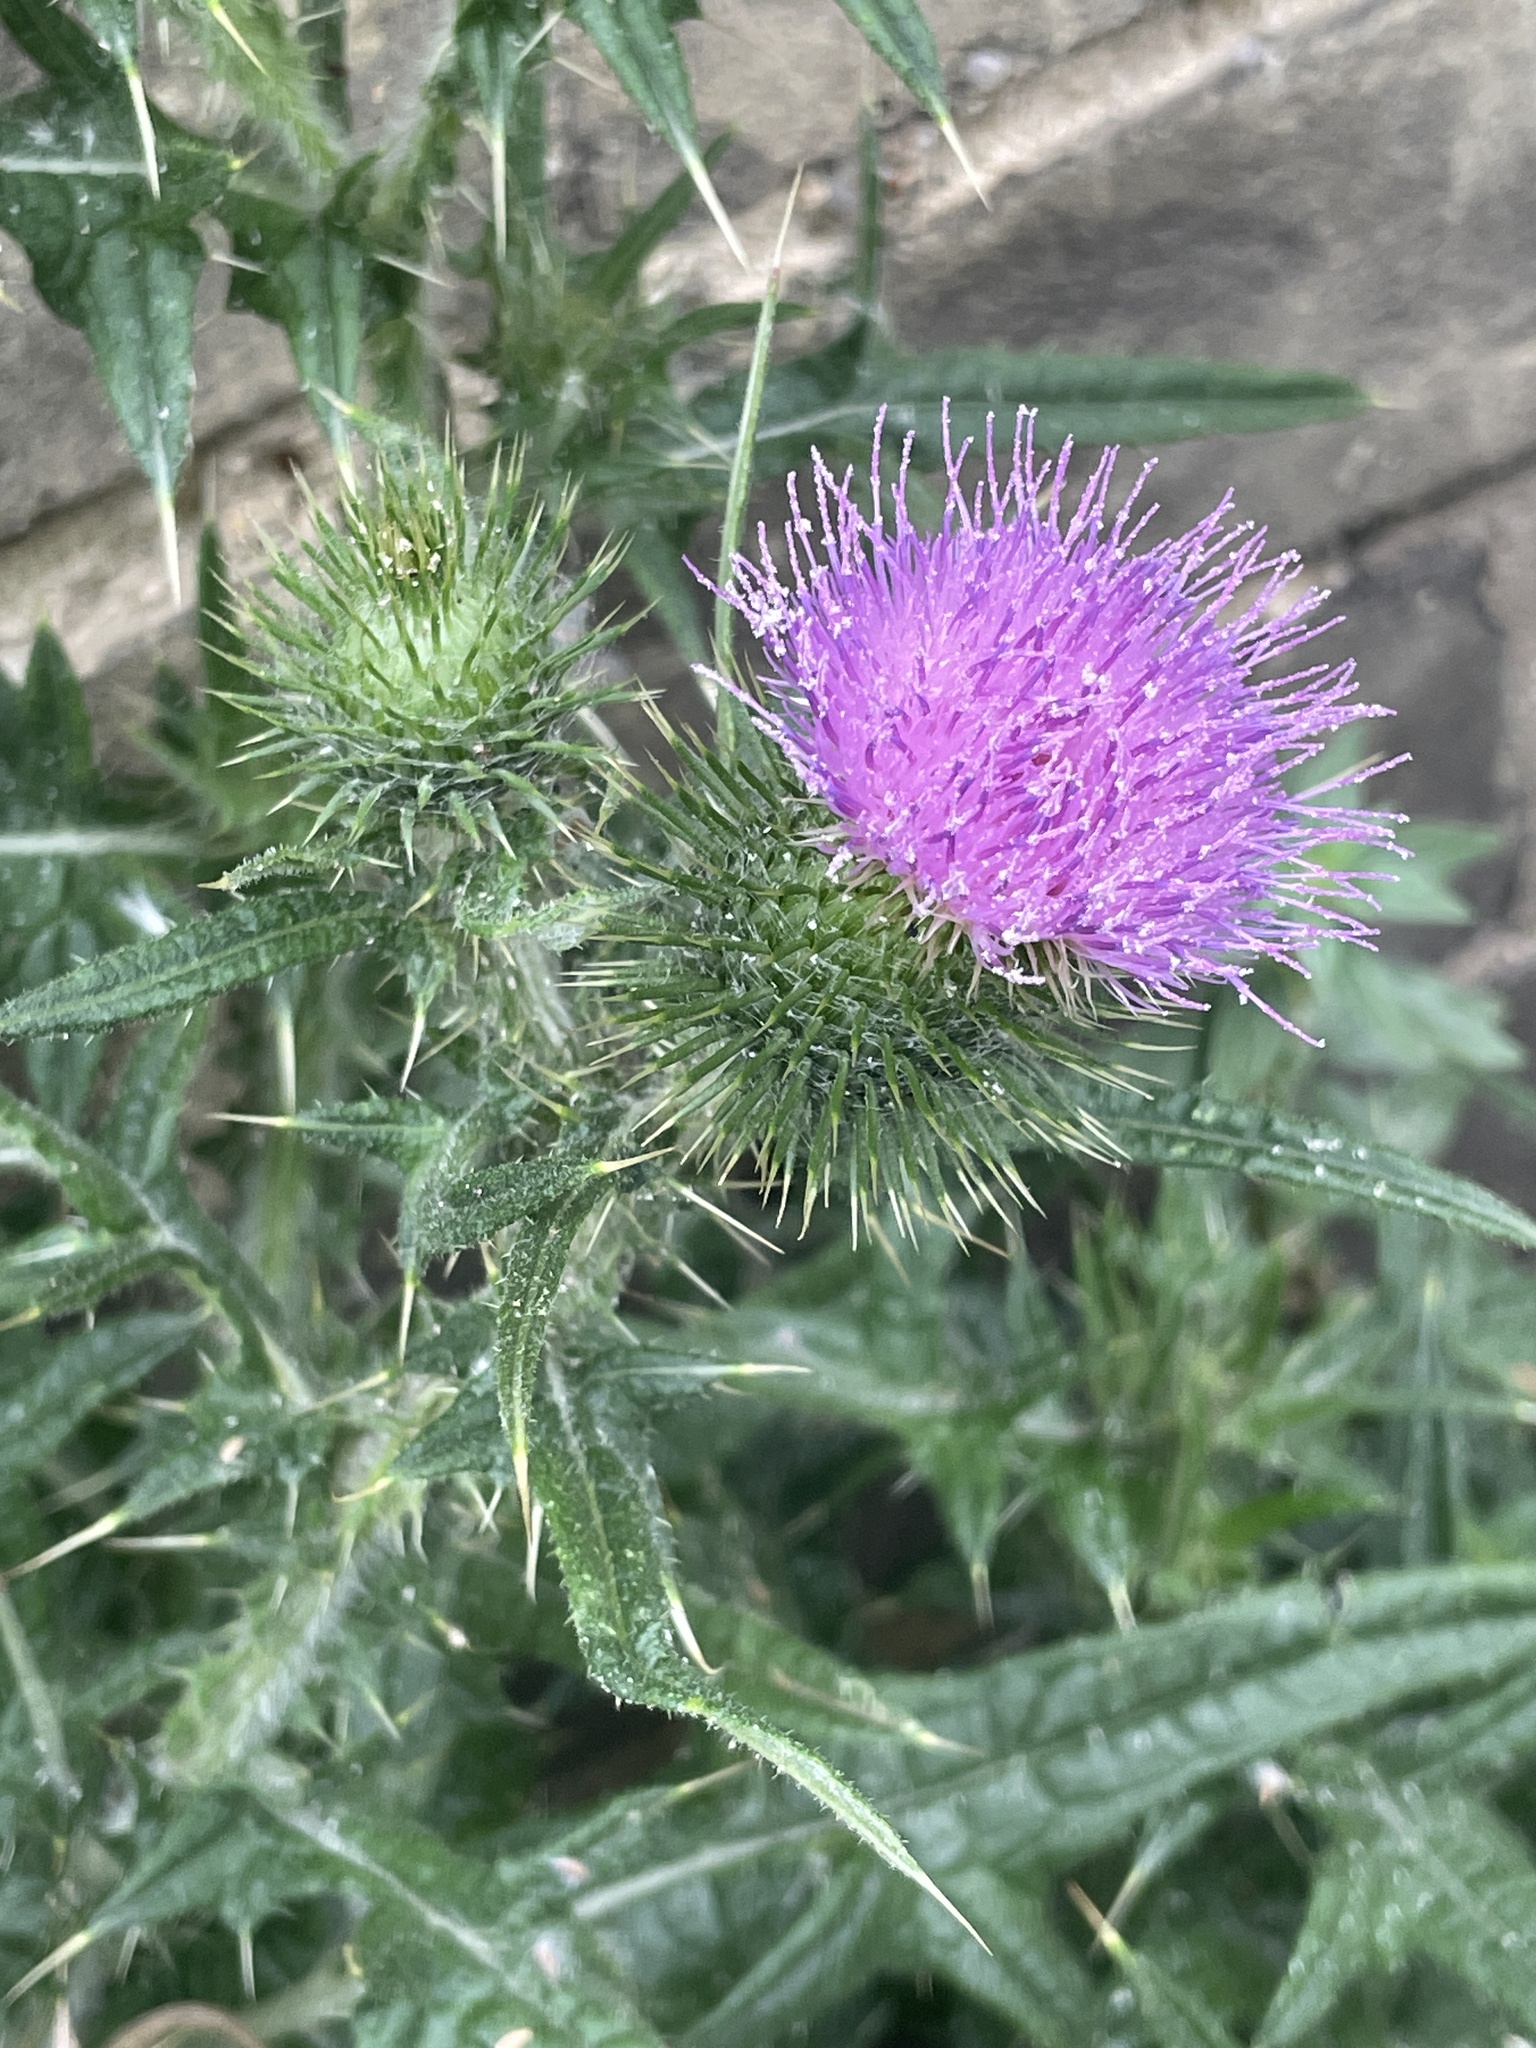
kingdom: Plantae
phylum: Tracheophyta
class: Magnoliopsida
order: Asterales
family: Asteraceae
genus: Cirsium
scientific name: Cirsium vulgare
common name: Bull thistle
